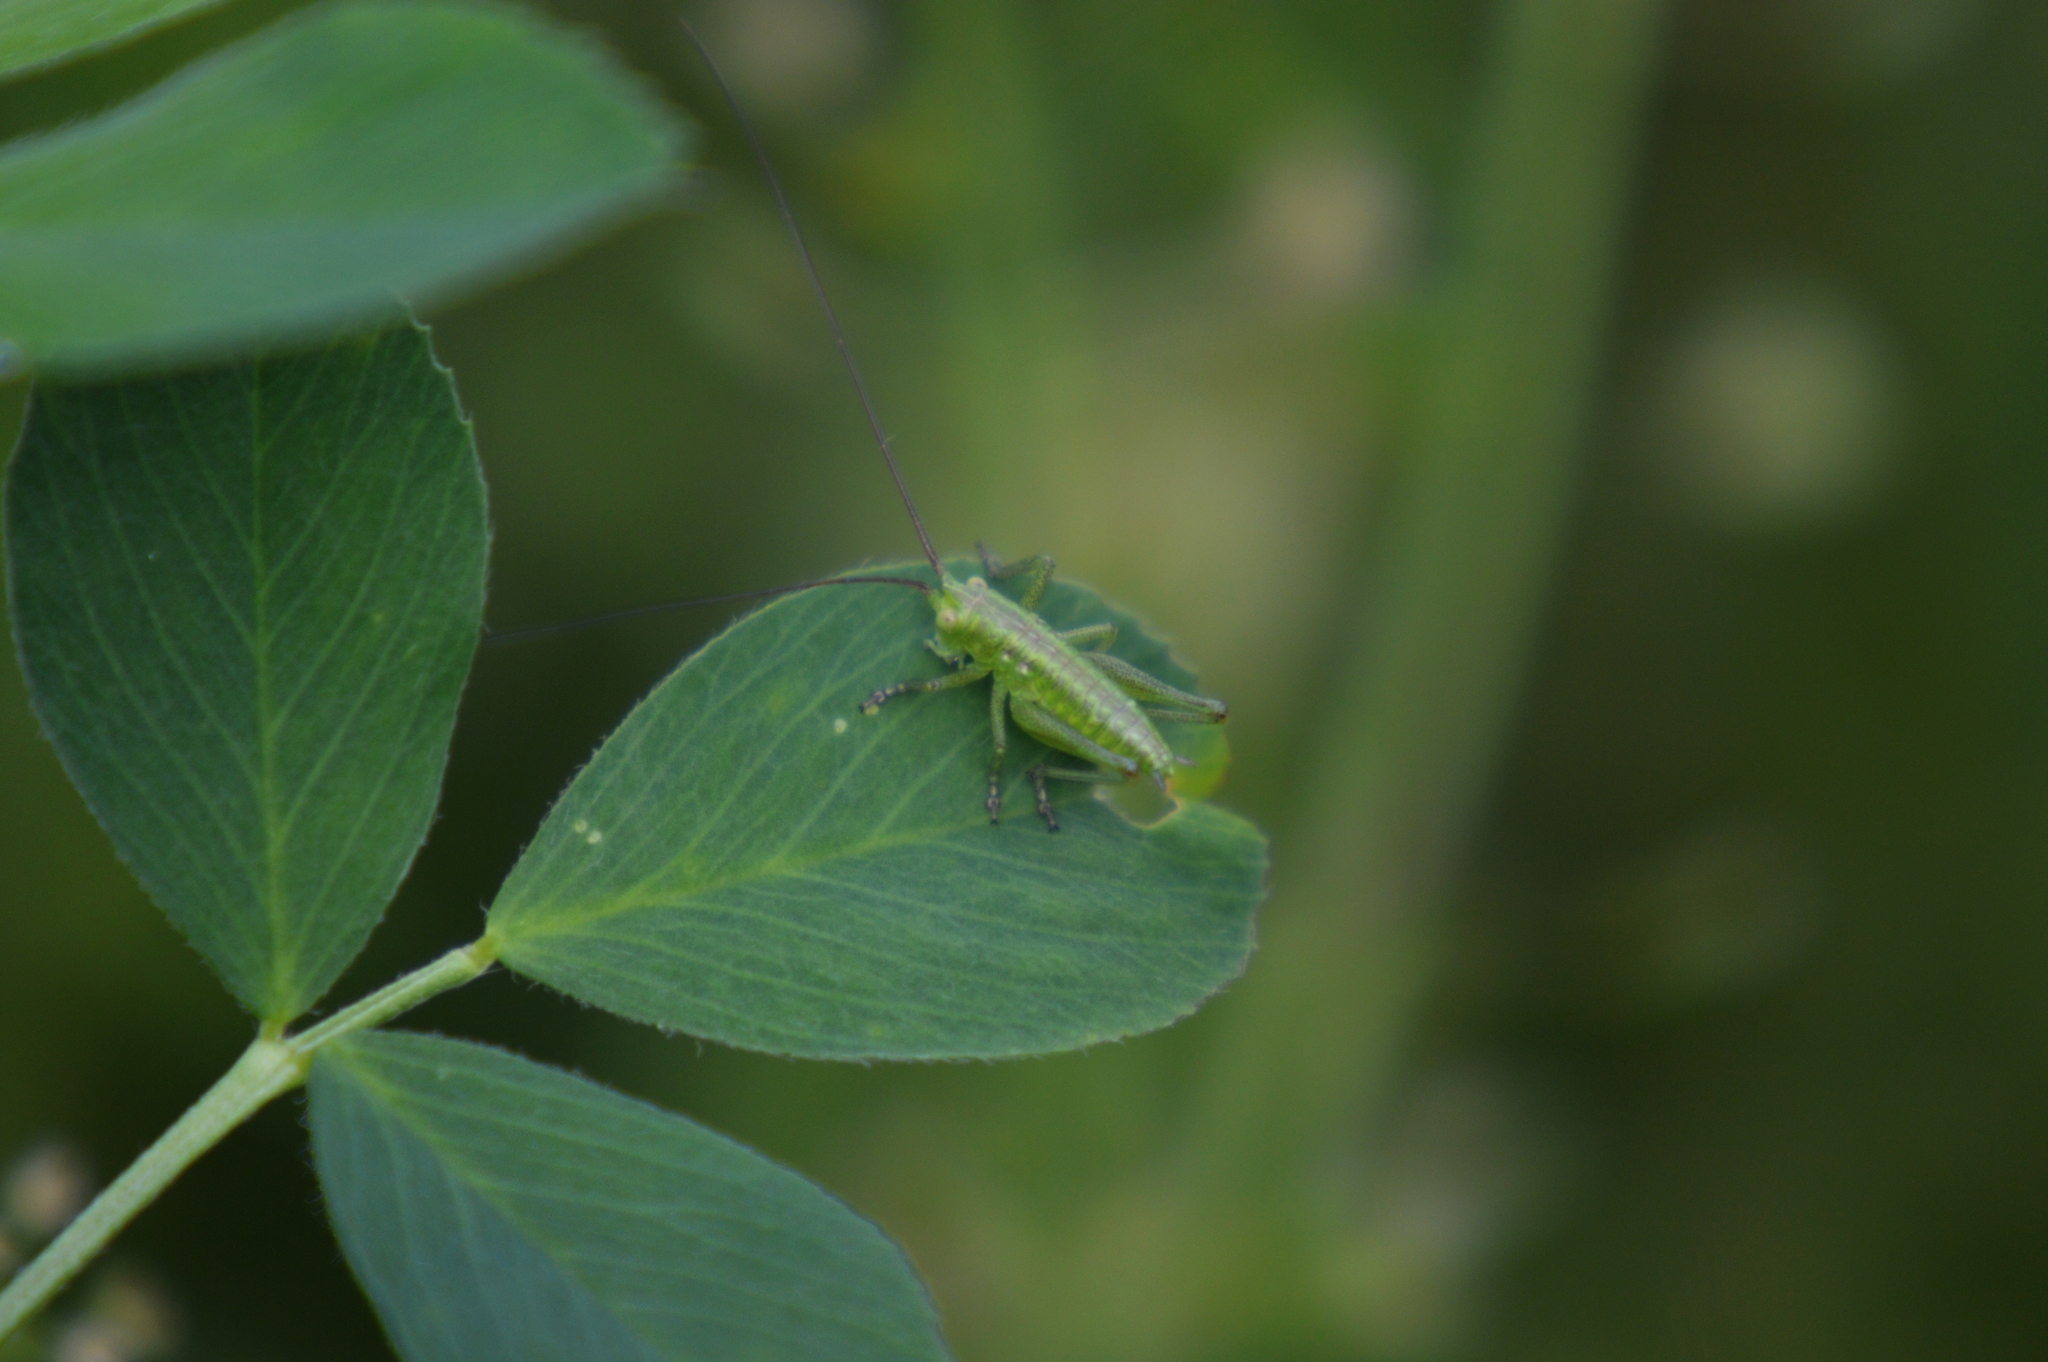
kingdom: Animalia
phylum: Arthropoda
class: Insecta
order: Orthoptera
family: Tettigoniidae
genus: Tettigonia
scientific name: Tettigonia viridissima
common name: Great green bush-cricket
